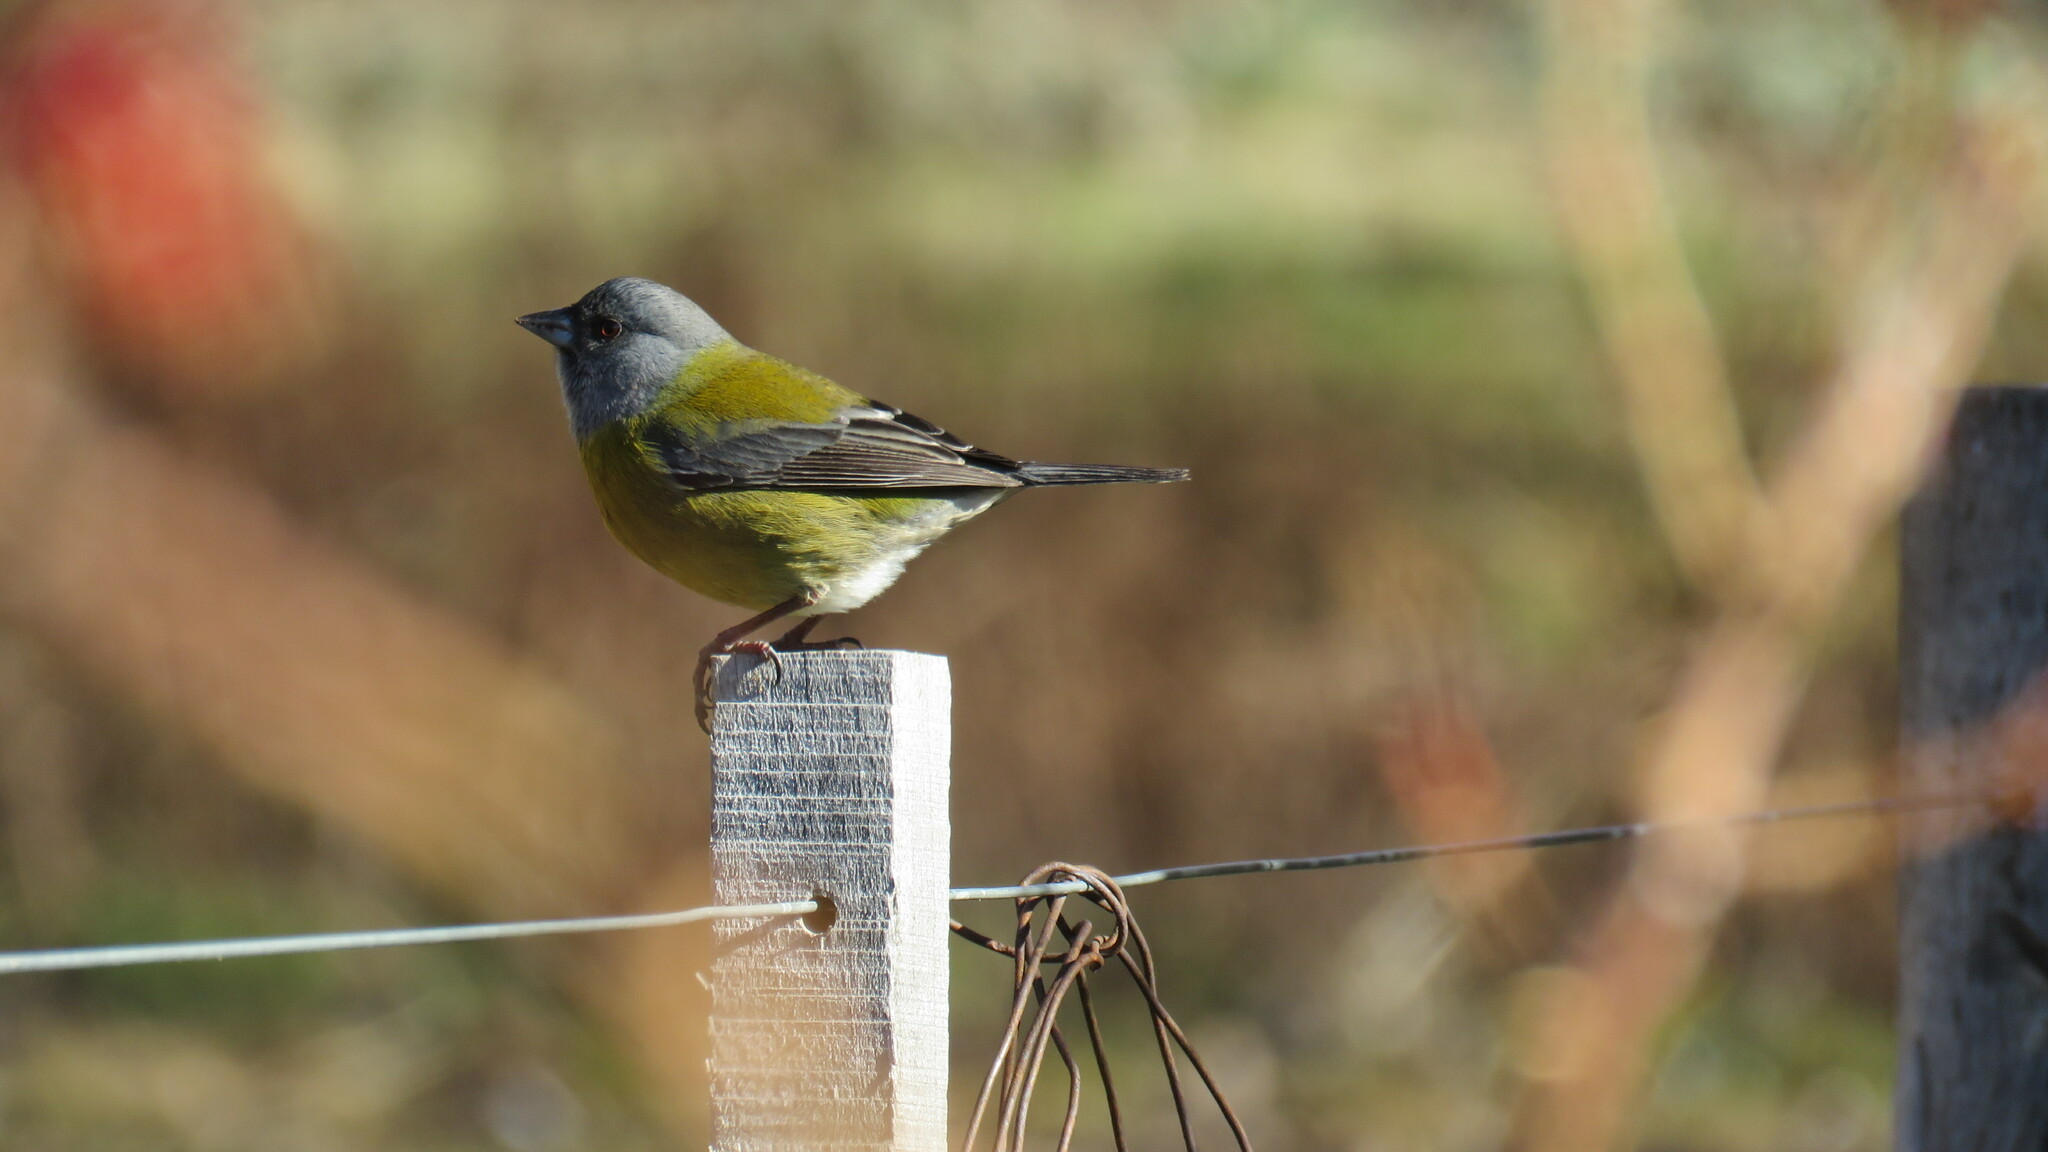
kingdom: Animalia
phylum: Chordata
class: Aves
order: Passeriformes
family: Thraupidae
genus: Phrygilus
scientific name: Phrygilus patagonicus
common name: Patagonian sierra finch
